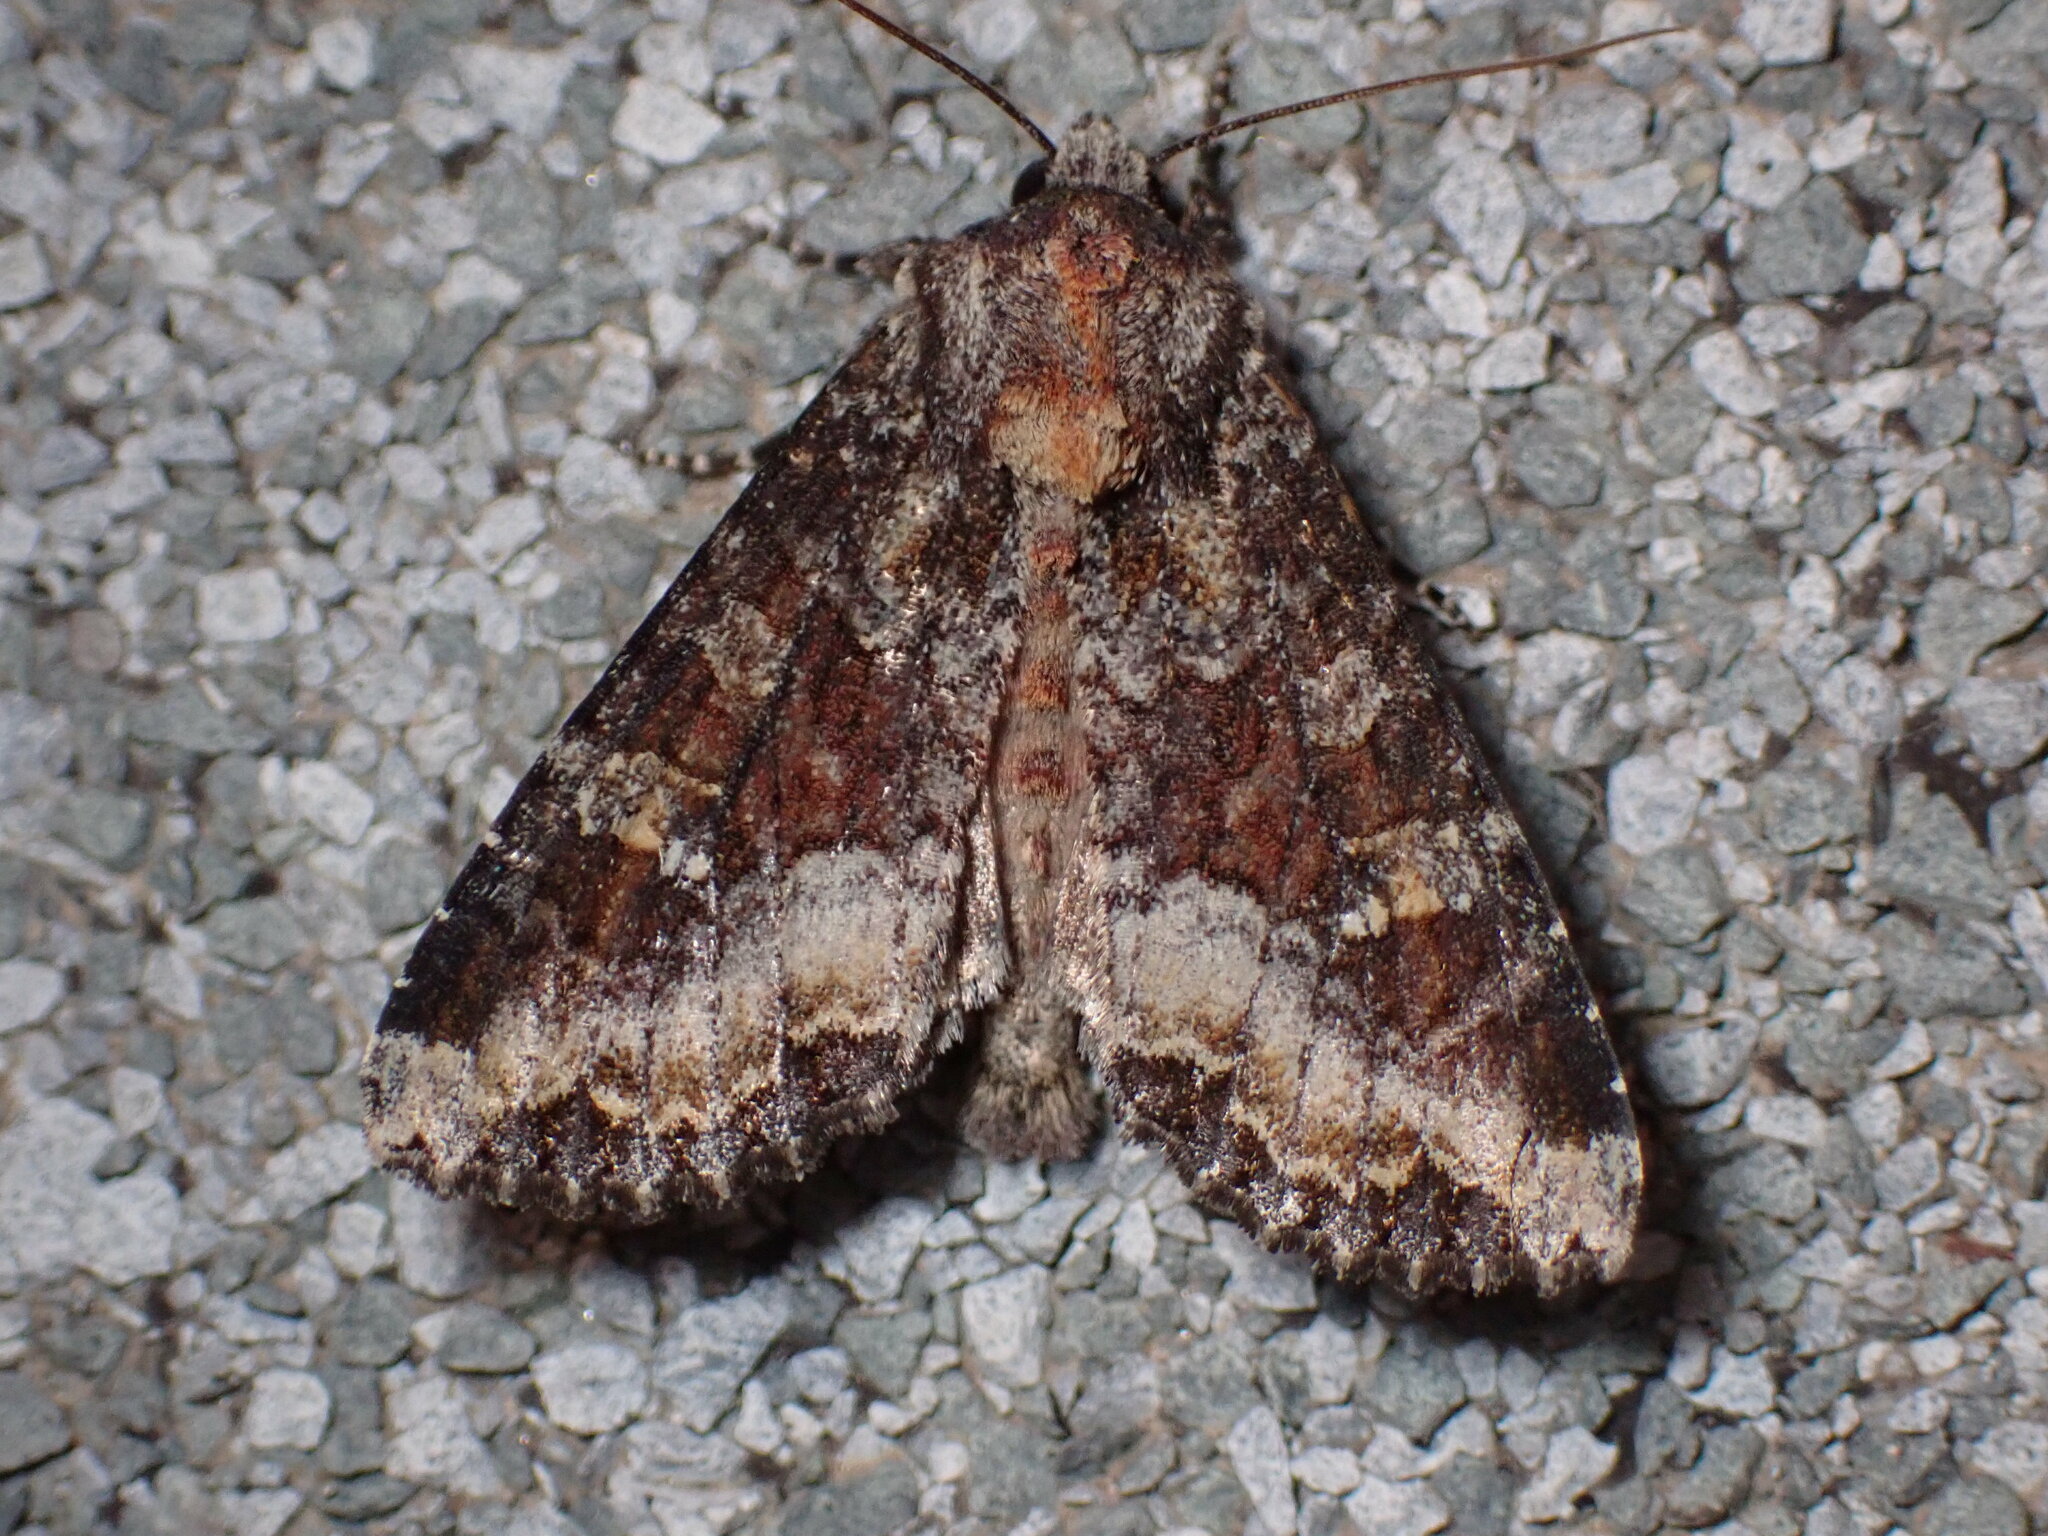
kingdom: Animalia
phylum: Arthropoda
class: Insecta
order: Lepidoptera
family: Noctuidae
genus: Apamea
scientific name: Apamea amputatrix
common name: Yellow-headed cutworm moth
